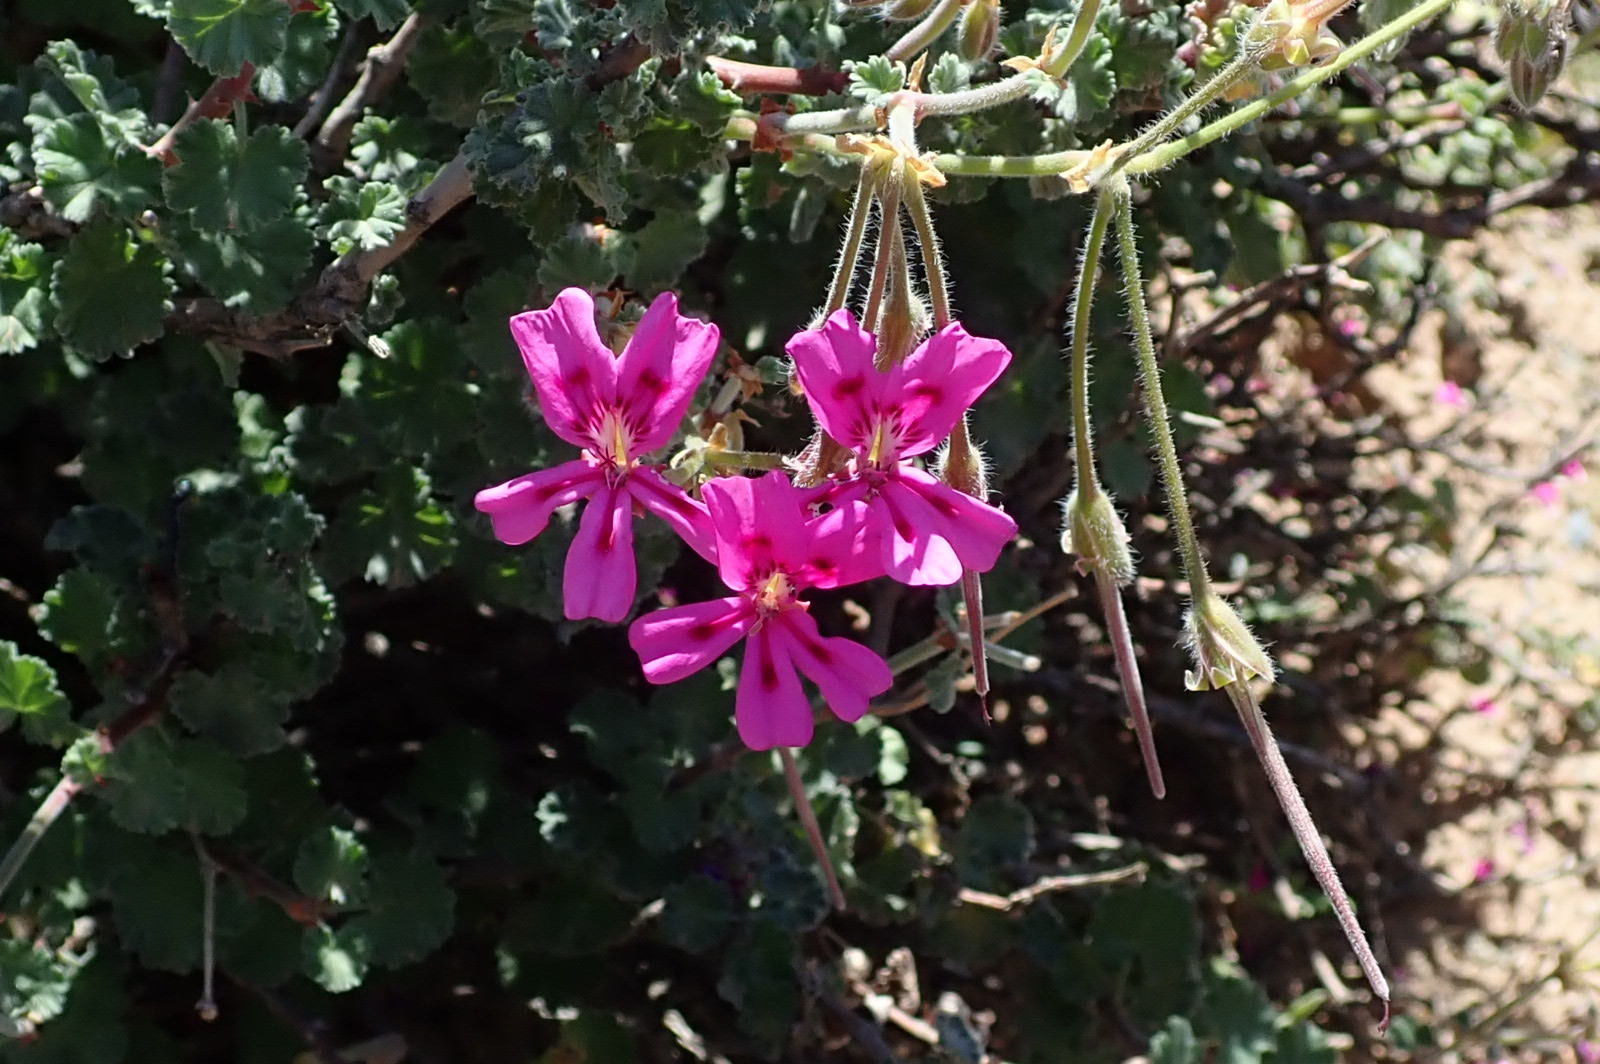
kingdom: Plantae
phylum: Tracheophyta
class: Magnoliopsida
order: Geraniales
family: Geraniaceae
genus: Pelargonium
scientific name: Pelargonium magenteum
